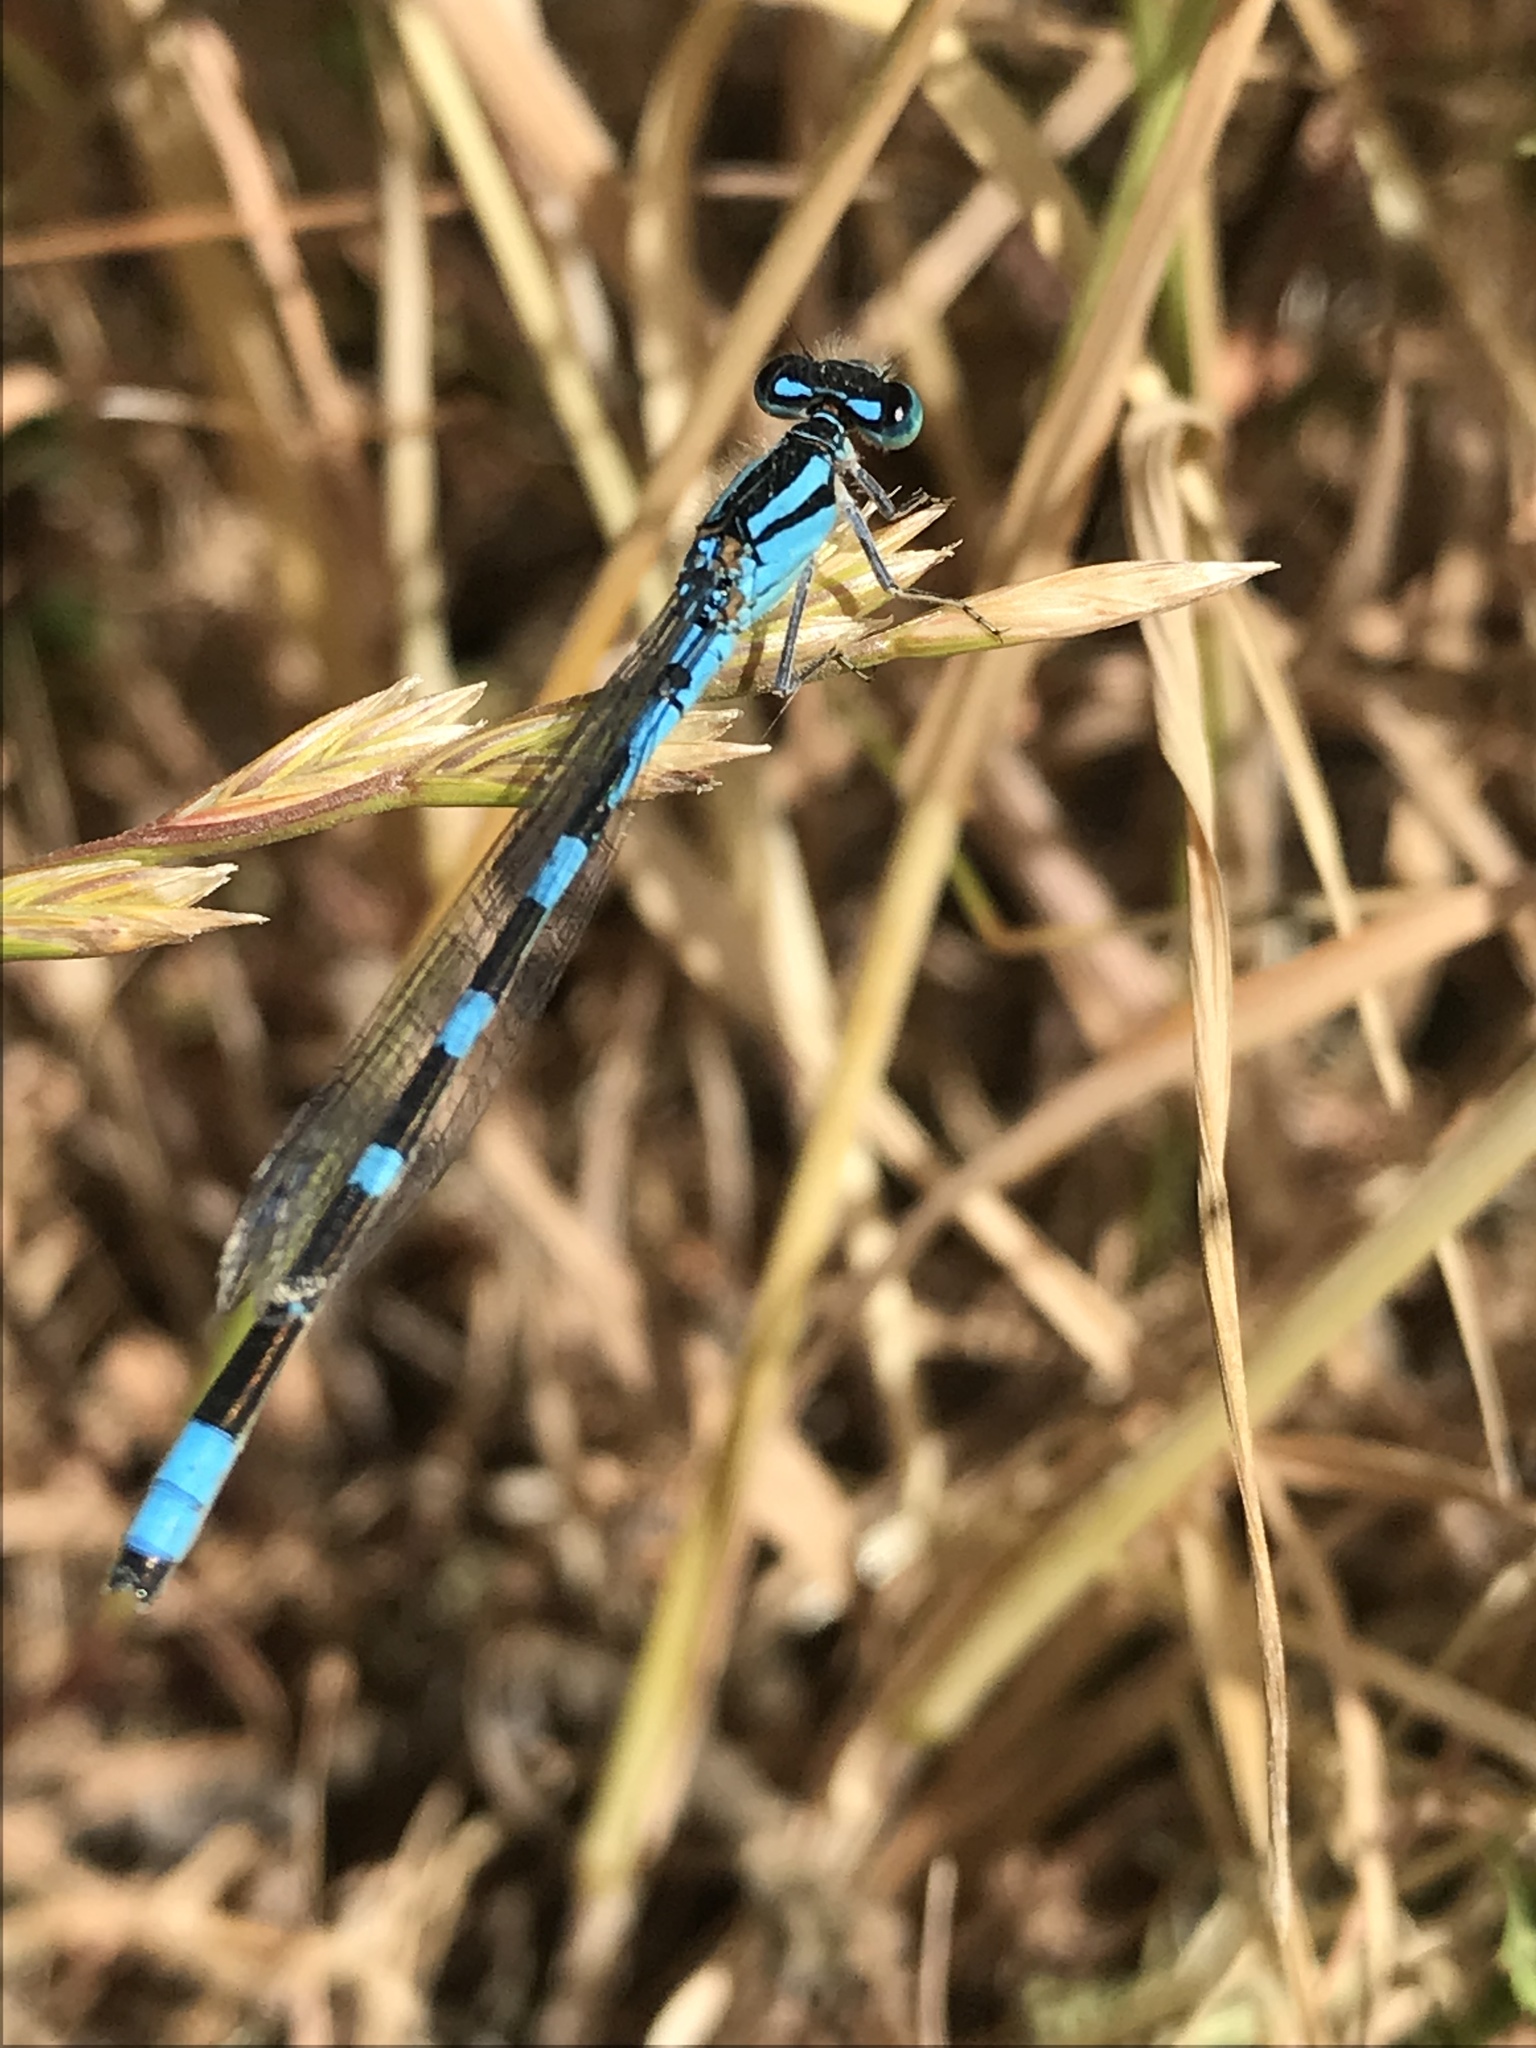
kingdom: Animalia
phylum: Arthropoda
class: Insecta
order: Odonata
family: Coenagrionidae
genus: Enallagma
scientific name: Enallagma carunculatum
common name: Tule bluet
